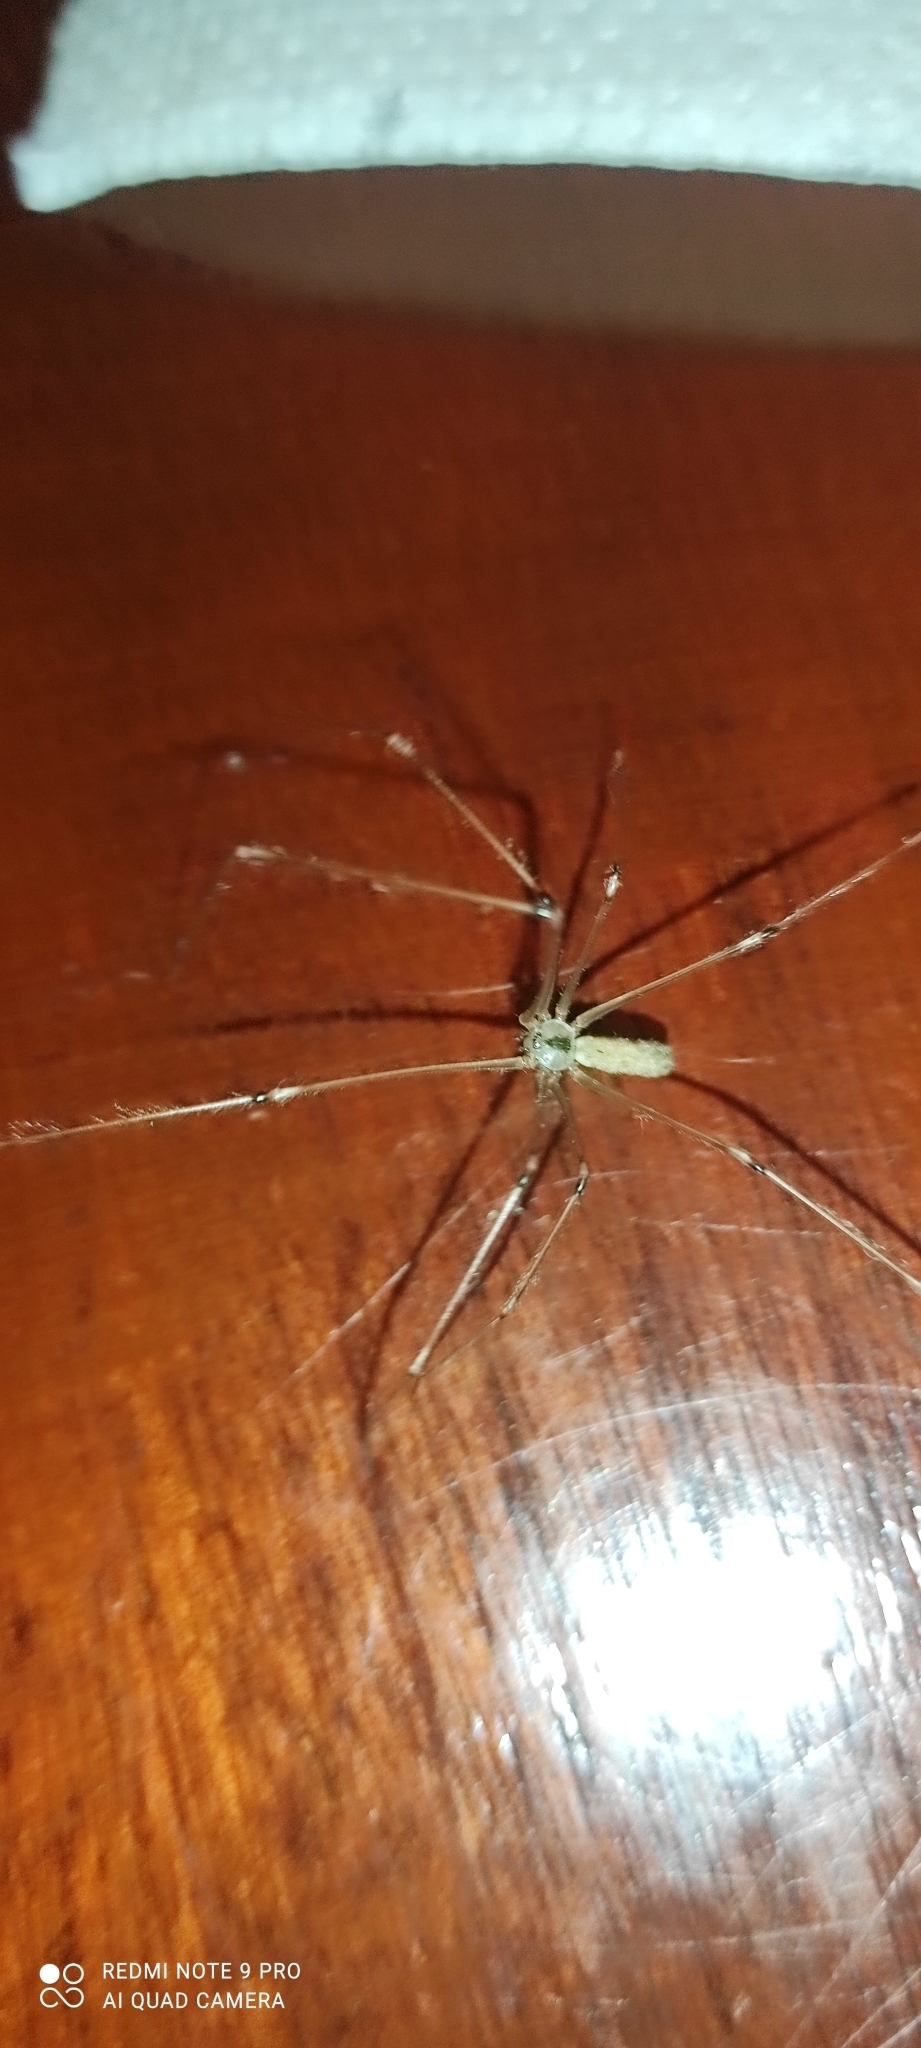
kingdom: Animalia
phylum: Arthropoda
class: Arachnida
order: Araneae
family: Pholcidae
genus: Pholcus
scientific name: Pholcus phalangioides
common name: Longbodied cellar spider
